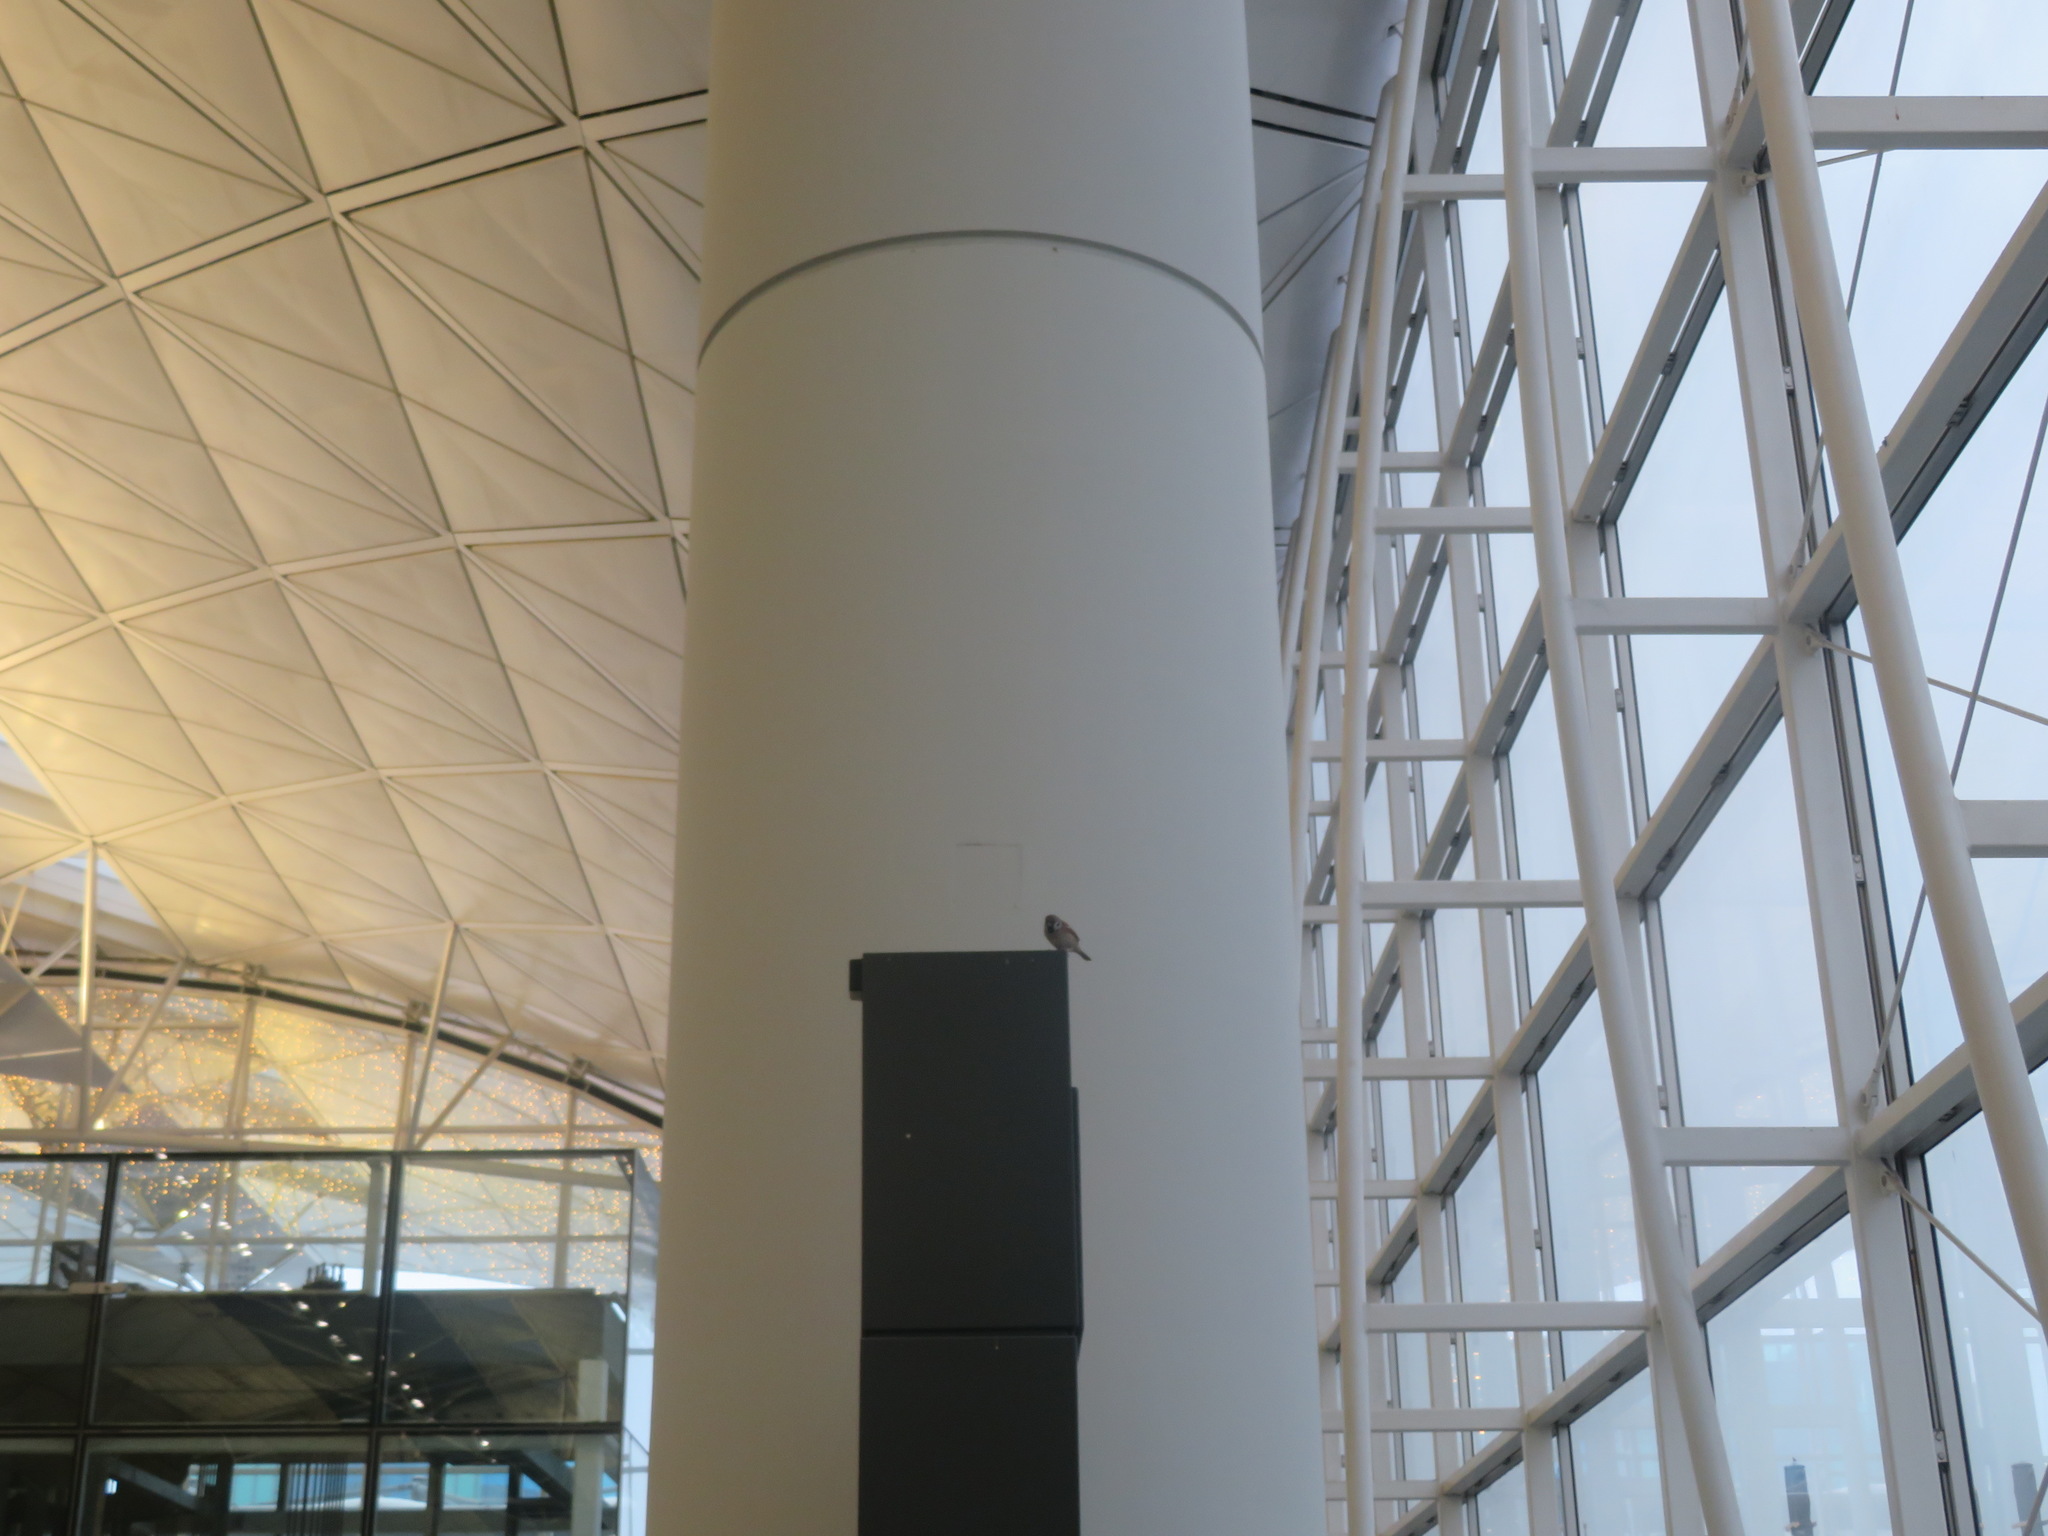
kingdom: Animalia
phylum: Chordata
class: Aves
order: Passeriformes
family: Passeridae
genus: Passer
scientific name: Passer montanus
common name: Eurasian tree sparrow
